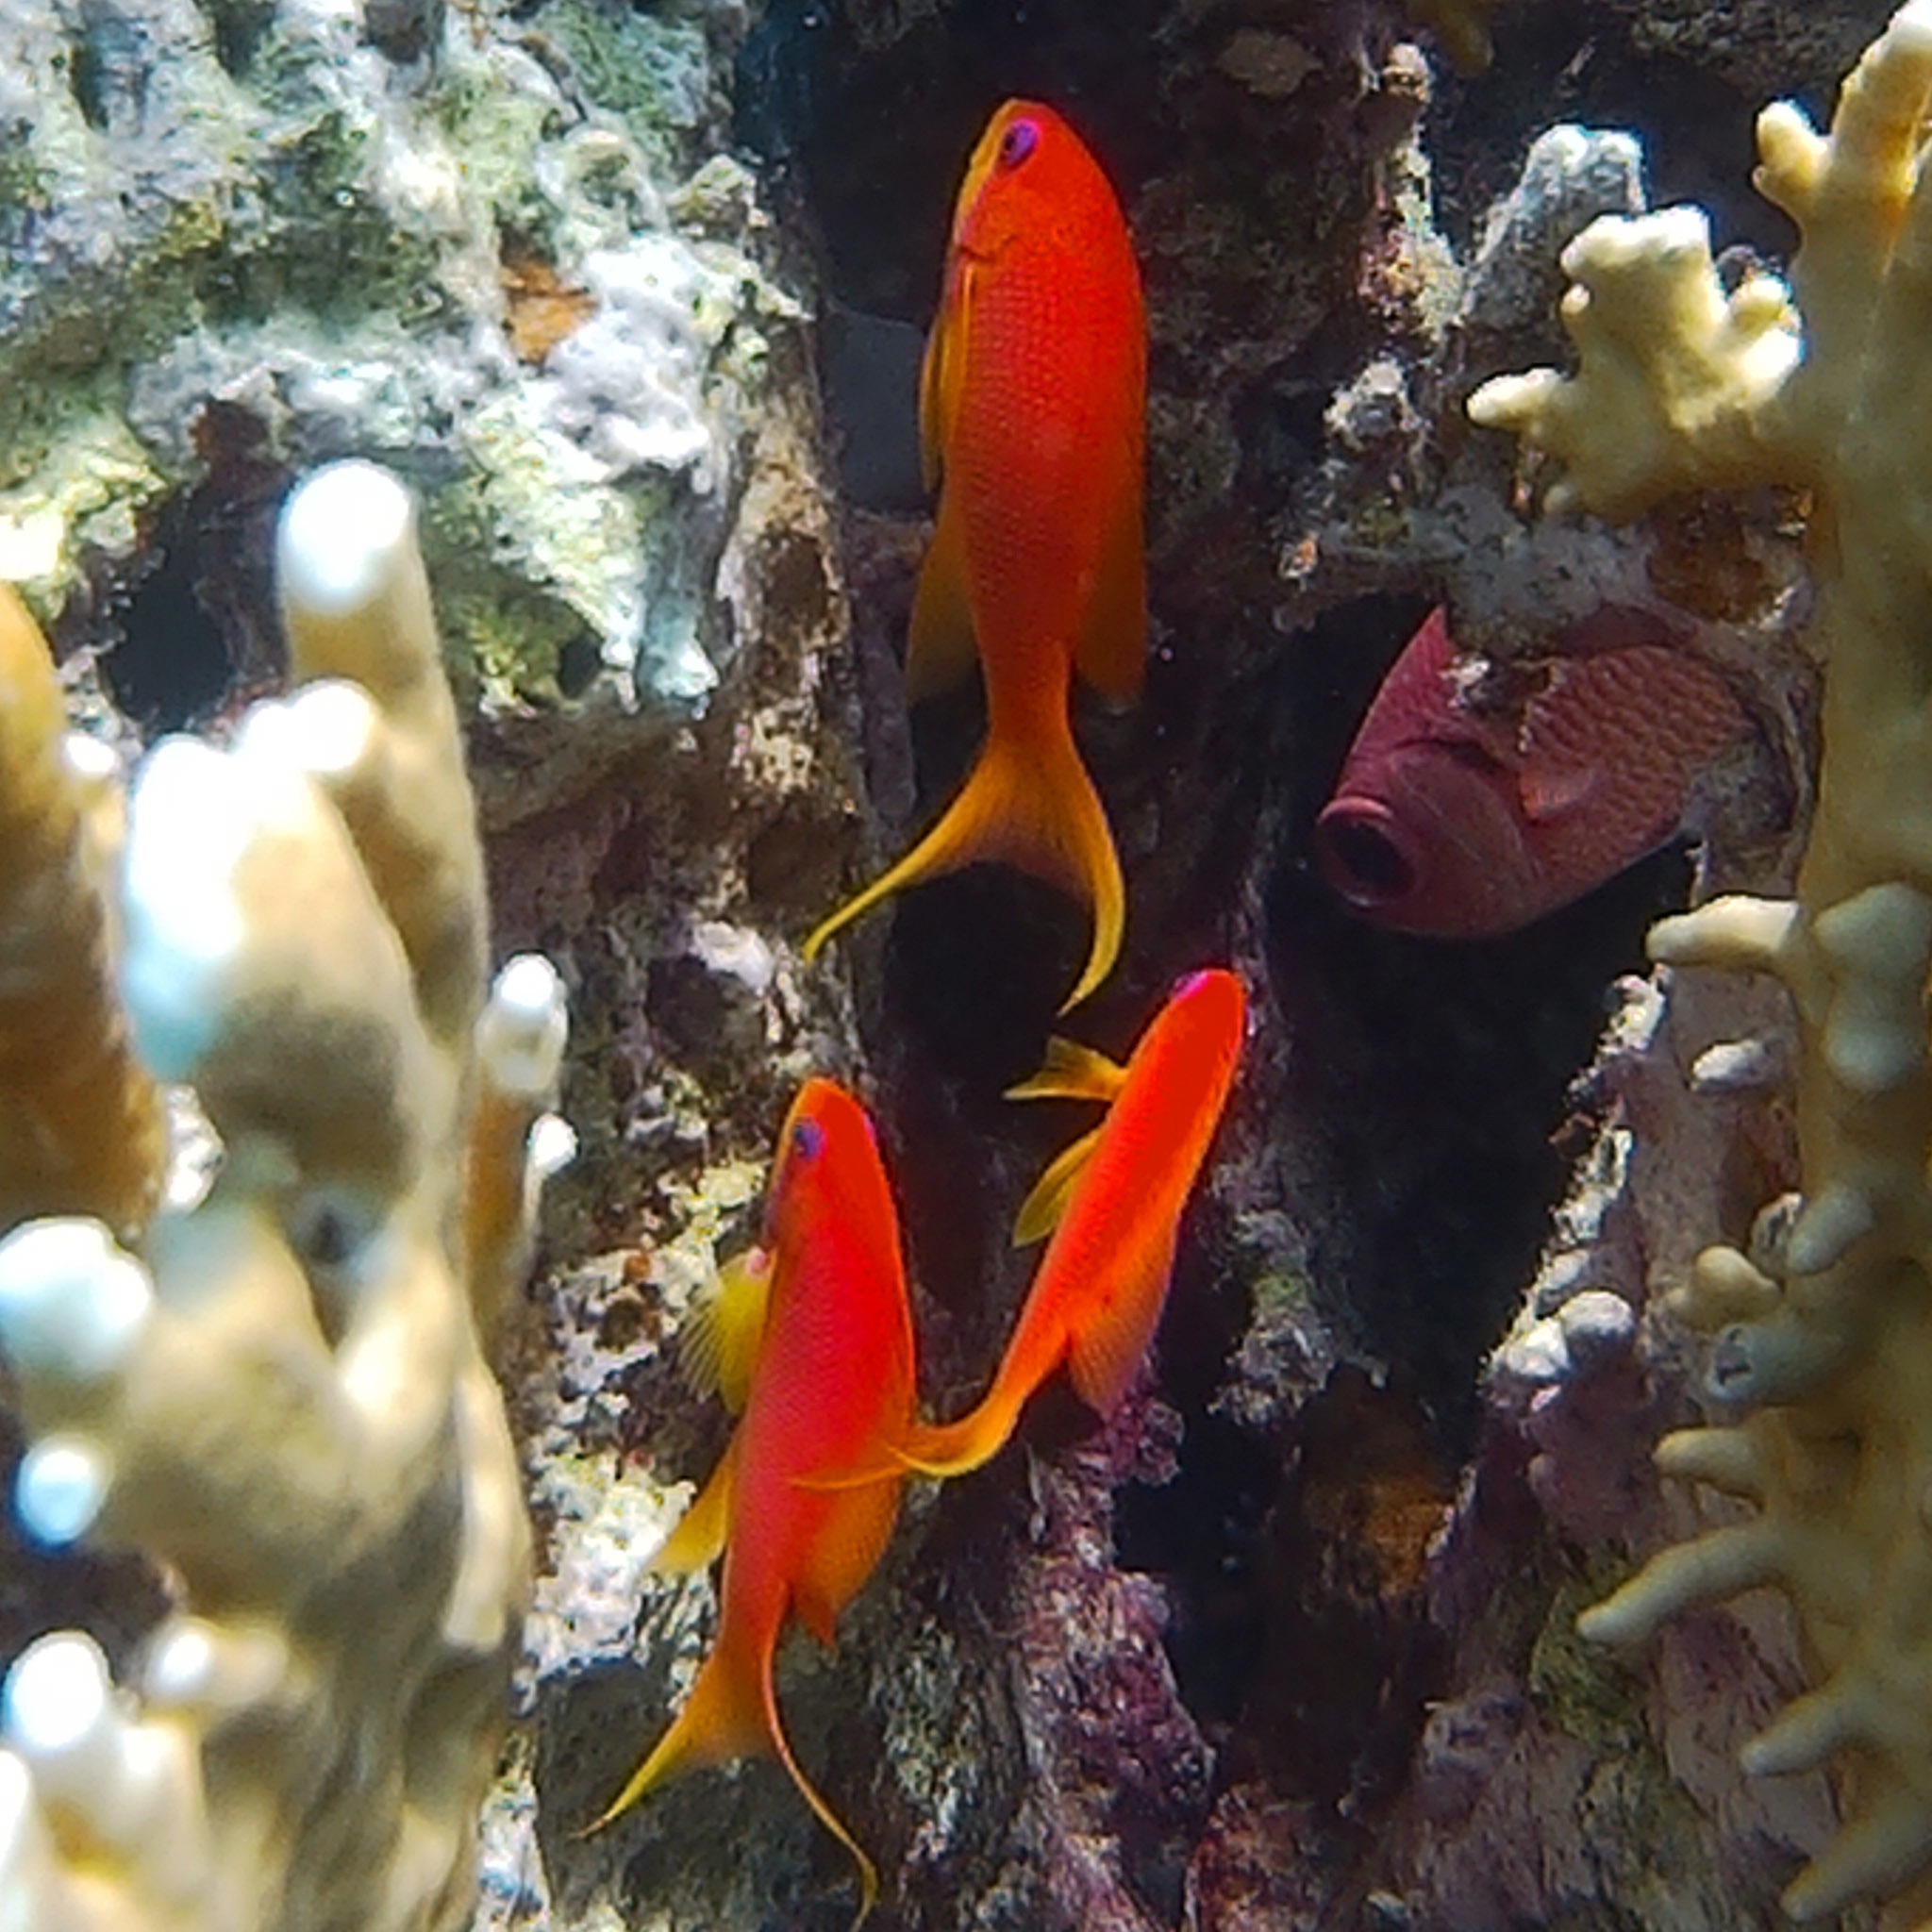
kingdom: Animalia
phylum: Chordata
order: Perciformes
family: Serranidae
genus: Pseudanthias
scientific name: Pseudanthias squamipinnis
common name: Scalefin anthias
